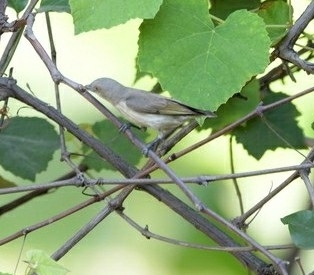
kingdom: Animalia
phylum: Chordata
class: Aves
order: Passeriformes
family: Dicaeidae
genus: Dicaeum
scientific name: Dicaeum agile
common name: Thick-billed flowerpecker
